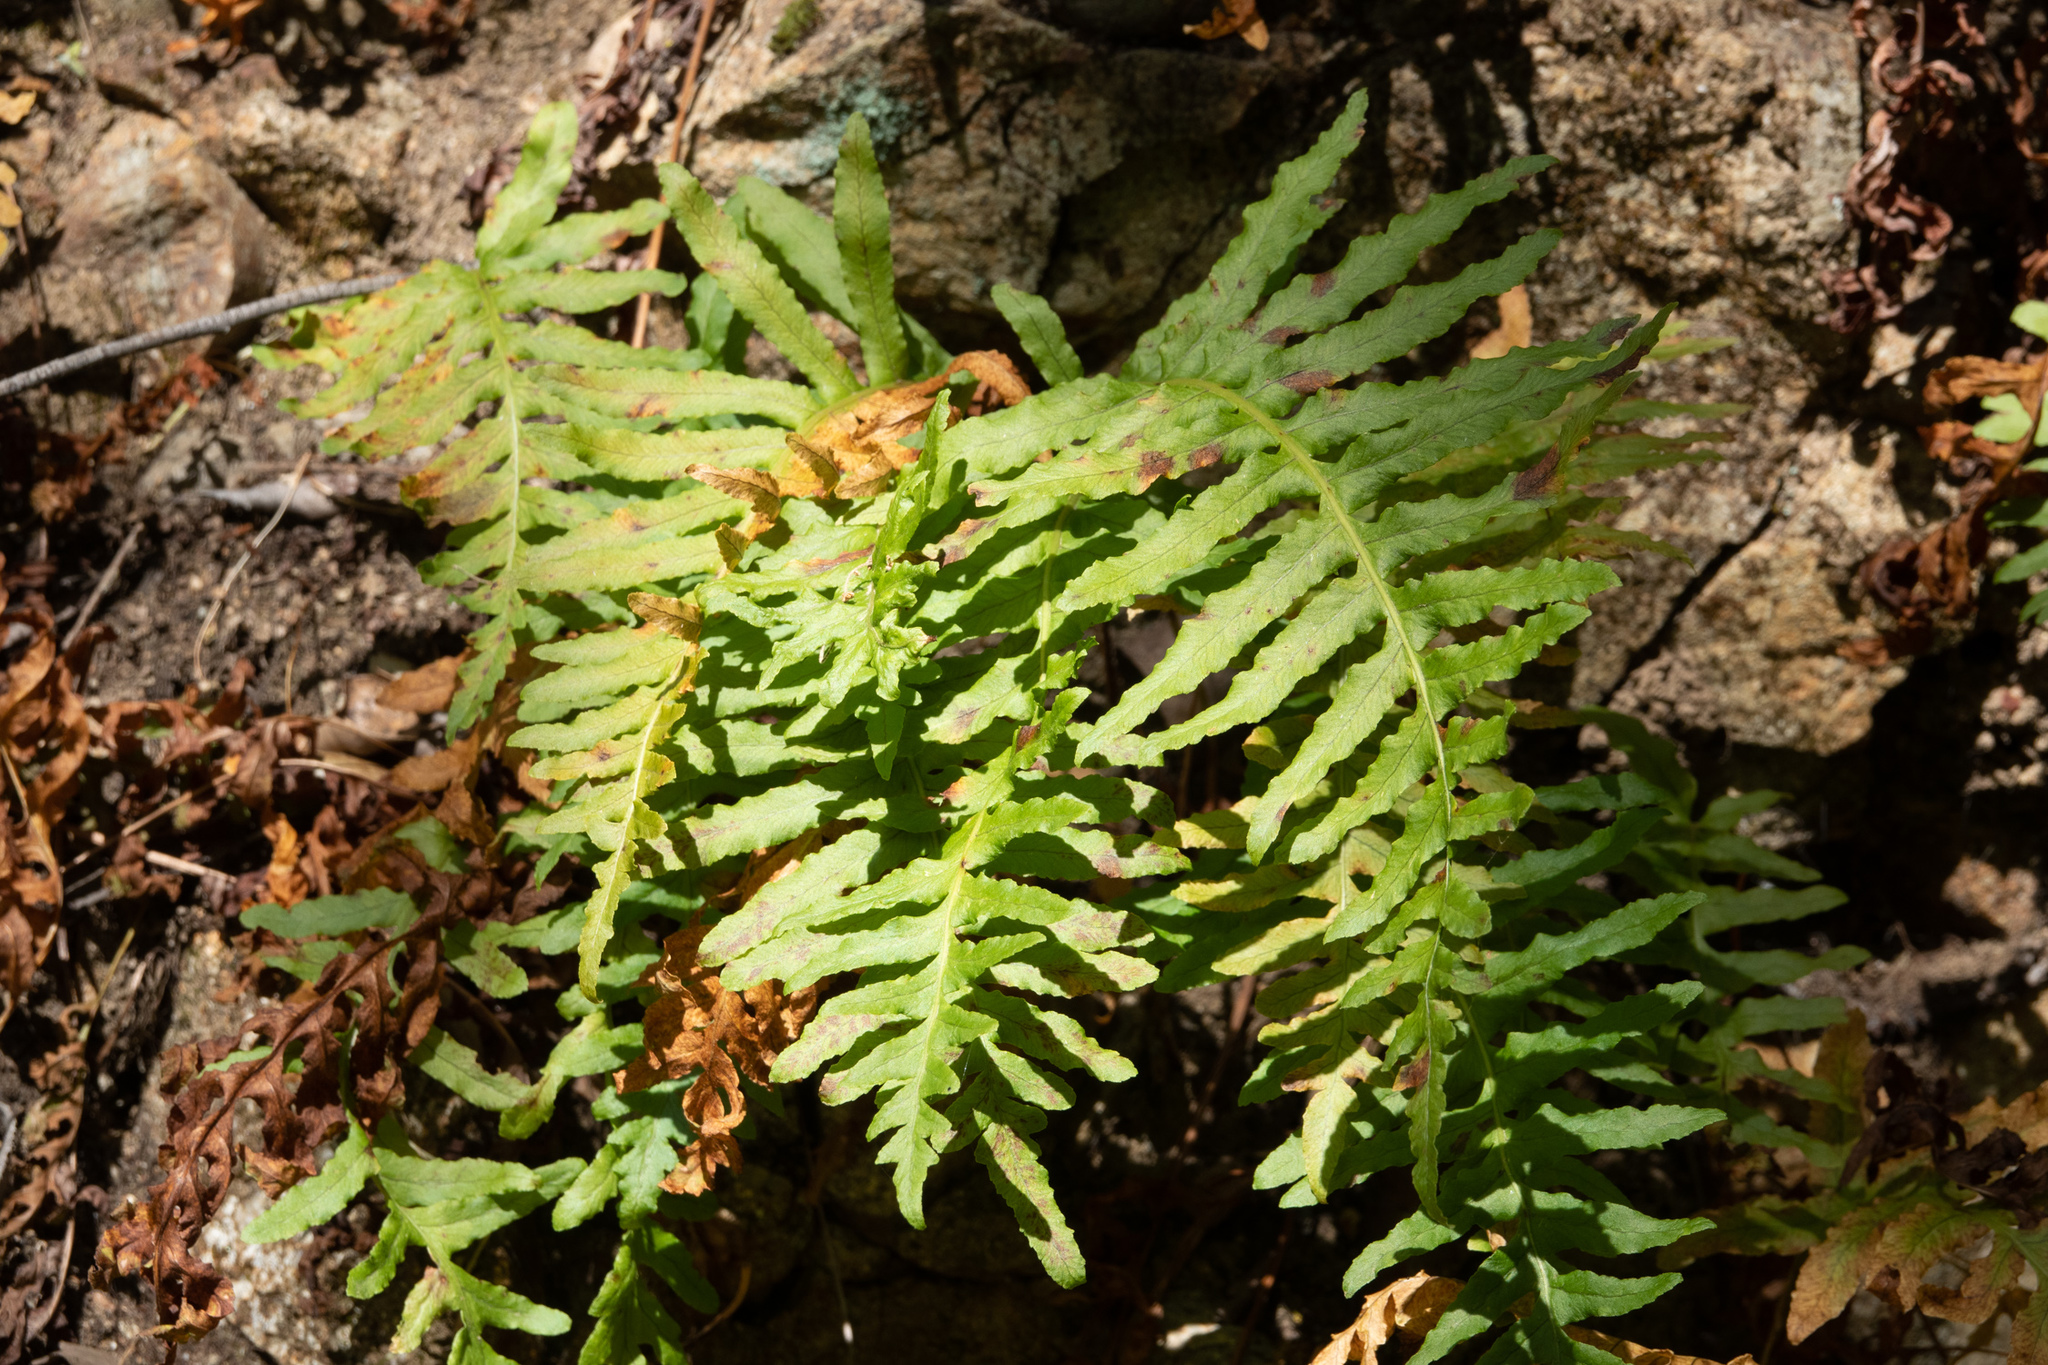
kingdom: Plantae
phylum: Tracheophyta
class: Polypodiopsida
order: Polypodiales
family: Polypodiaceae
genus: Polypodium
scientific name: Polypodium californicum
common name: California polypody
